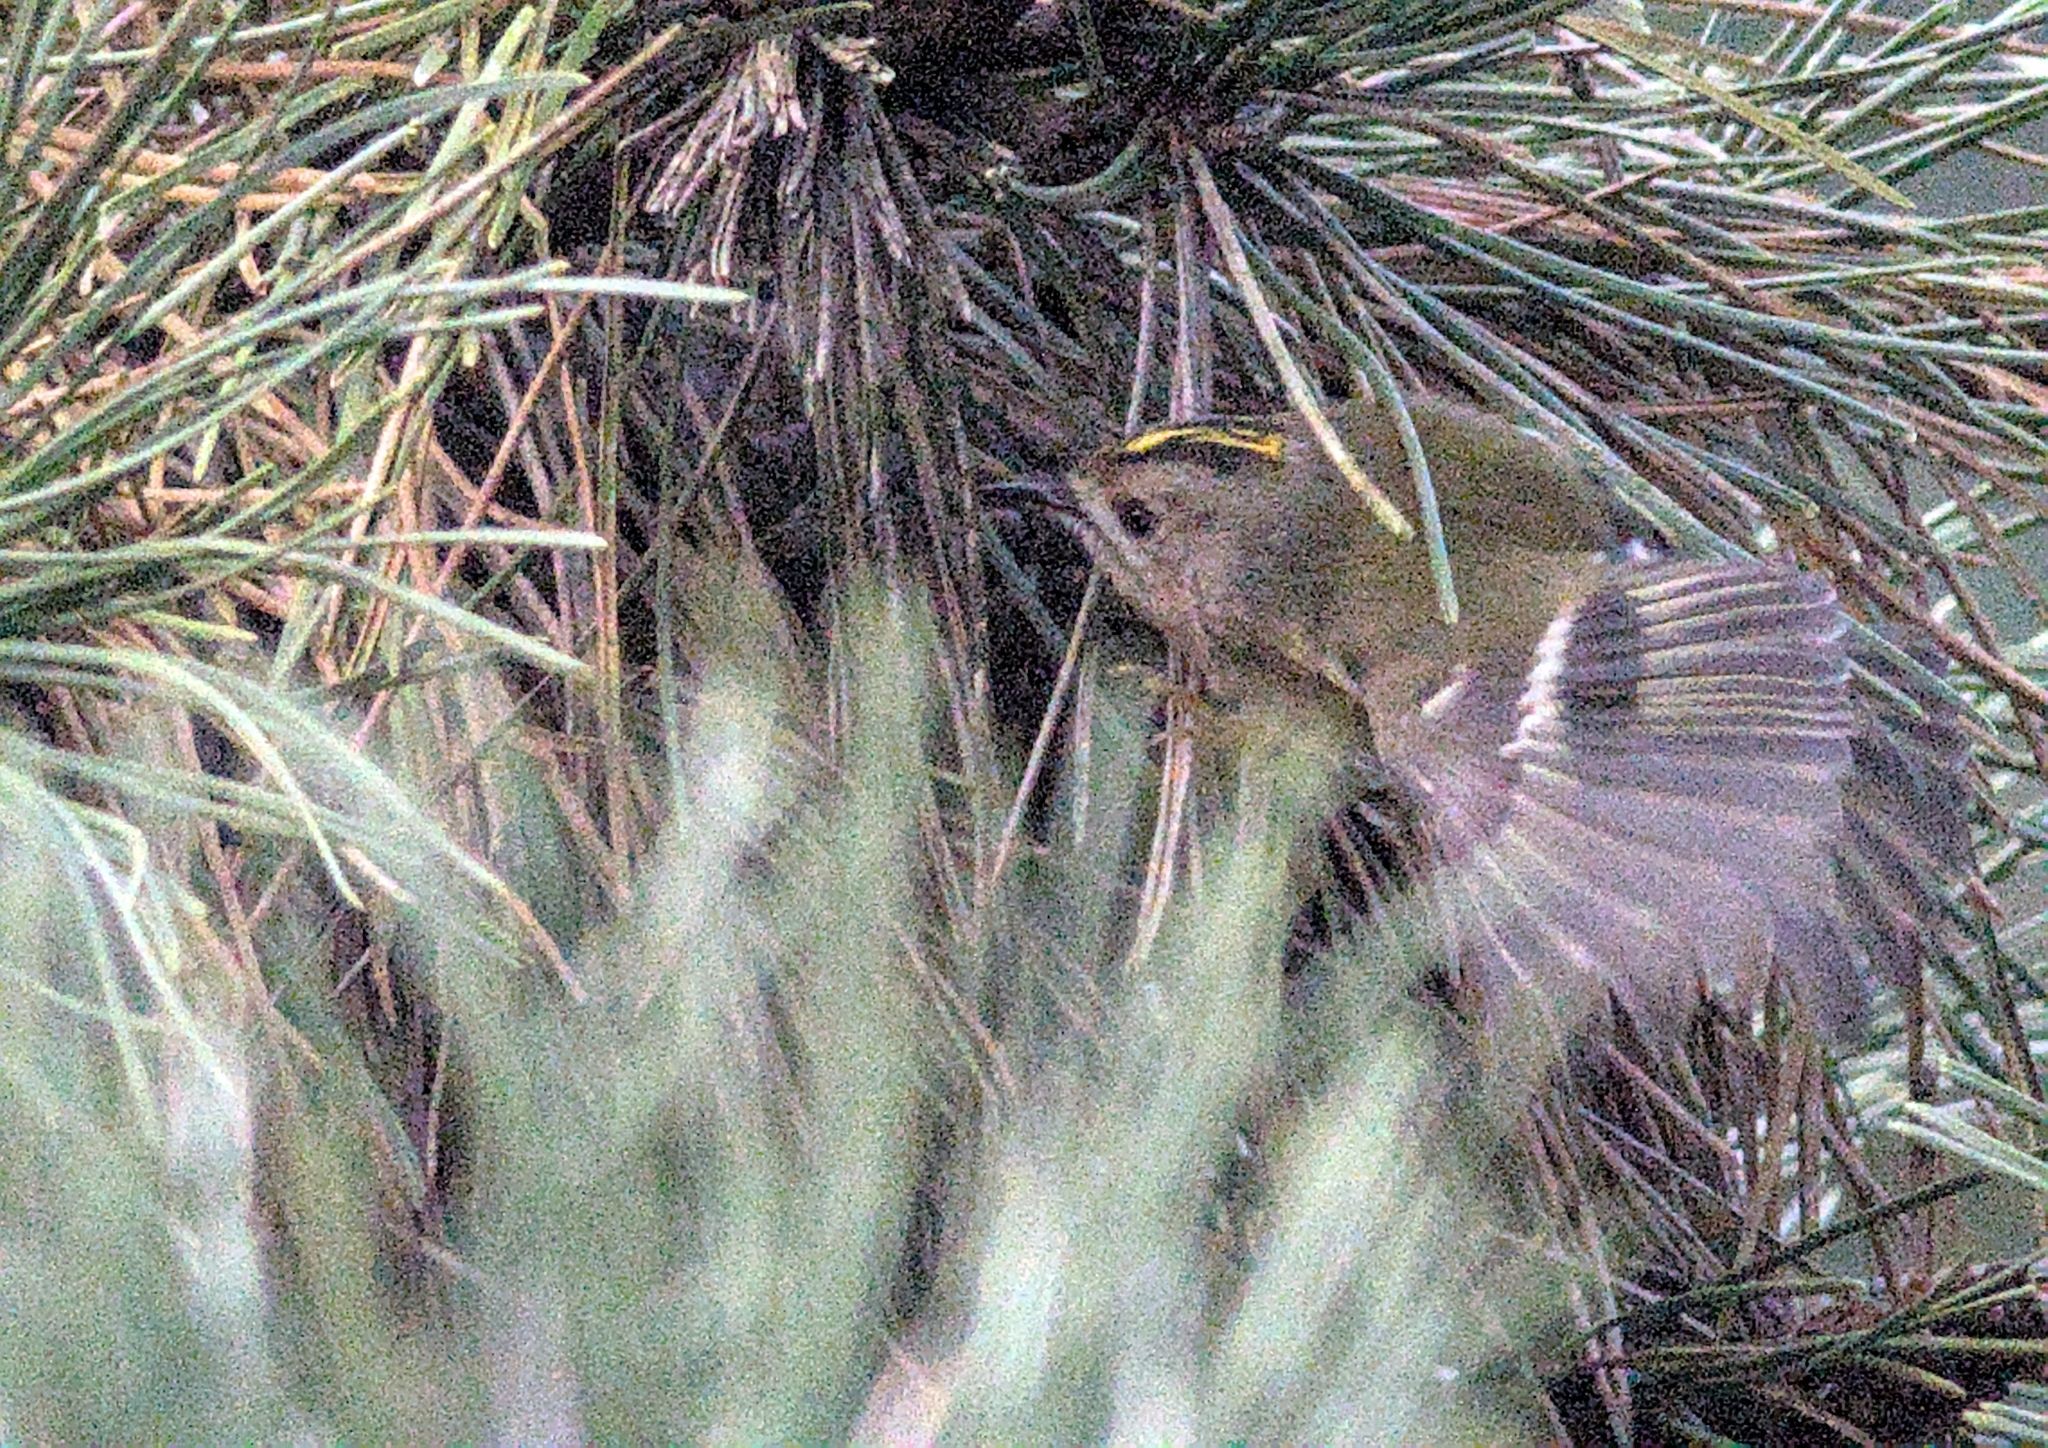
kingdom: Animalia
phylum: Chordata
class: Aves
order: Passeriformes
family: Regulidae
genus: Regulus
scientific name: Regulus regulus
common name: Goldcrest
